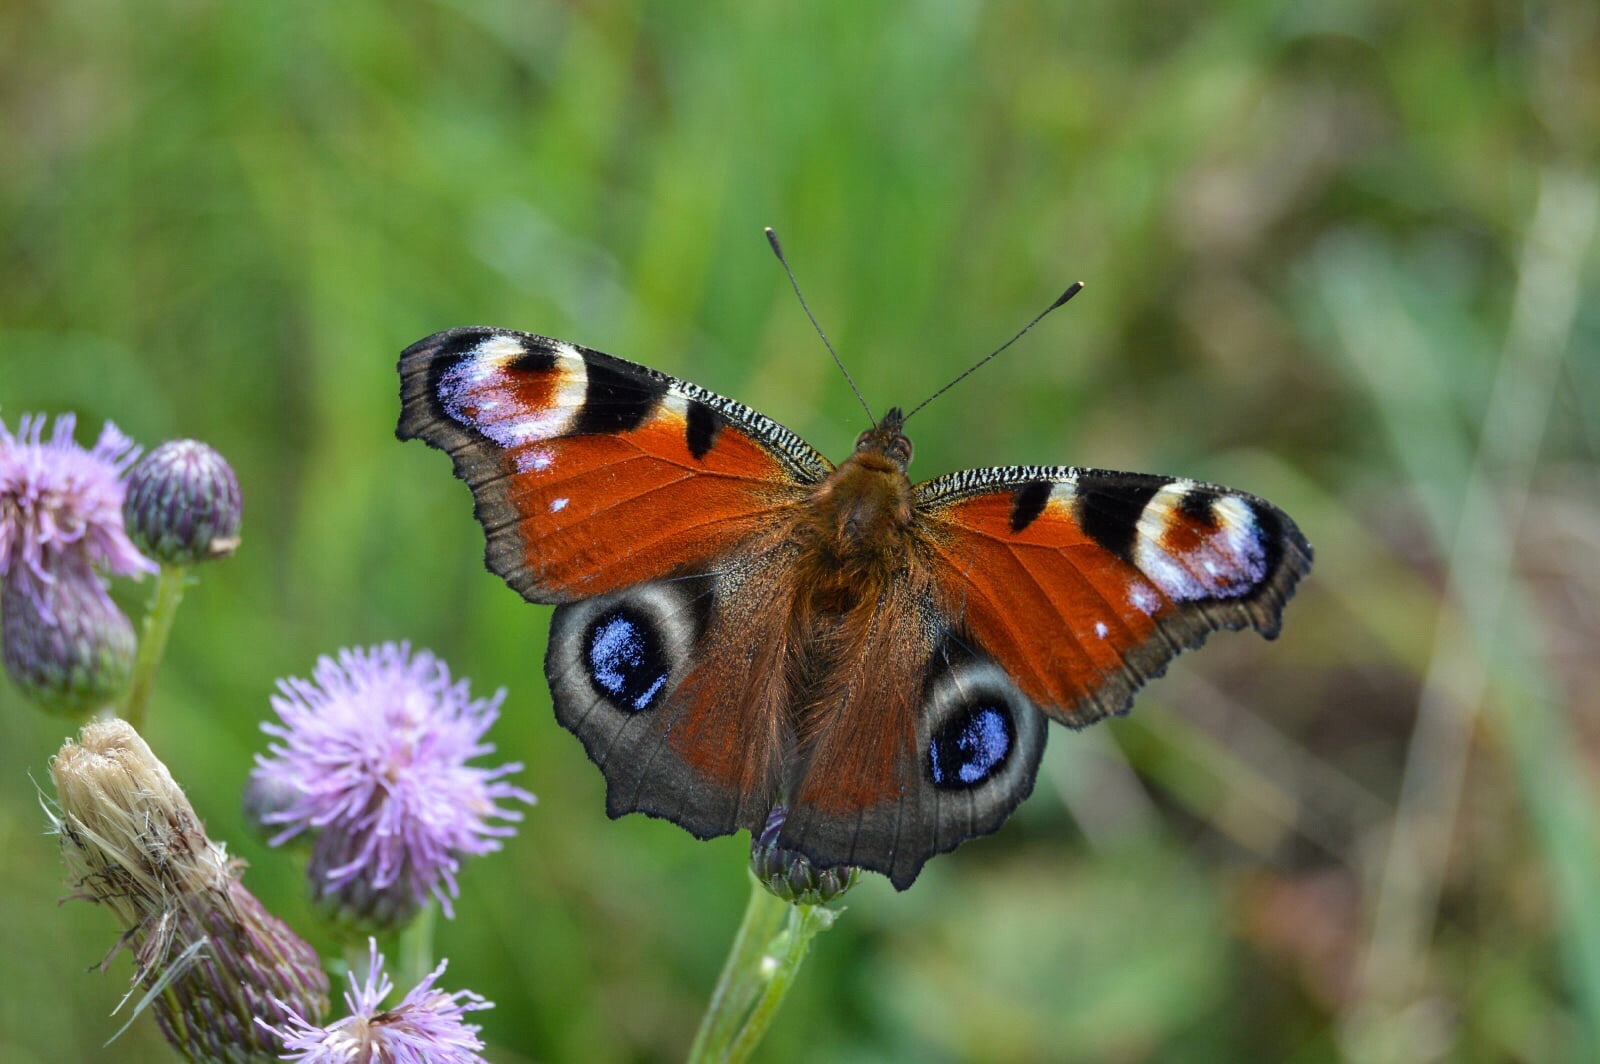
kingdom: Animalia
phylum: Arthropoda
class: Insecta
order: Lepidoptera
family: Nymphalidae
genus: Aglais
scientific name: Aglais io
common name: Peacock
